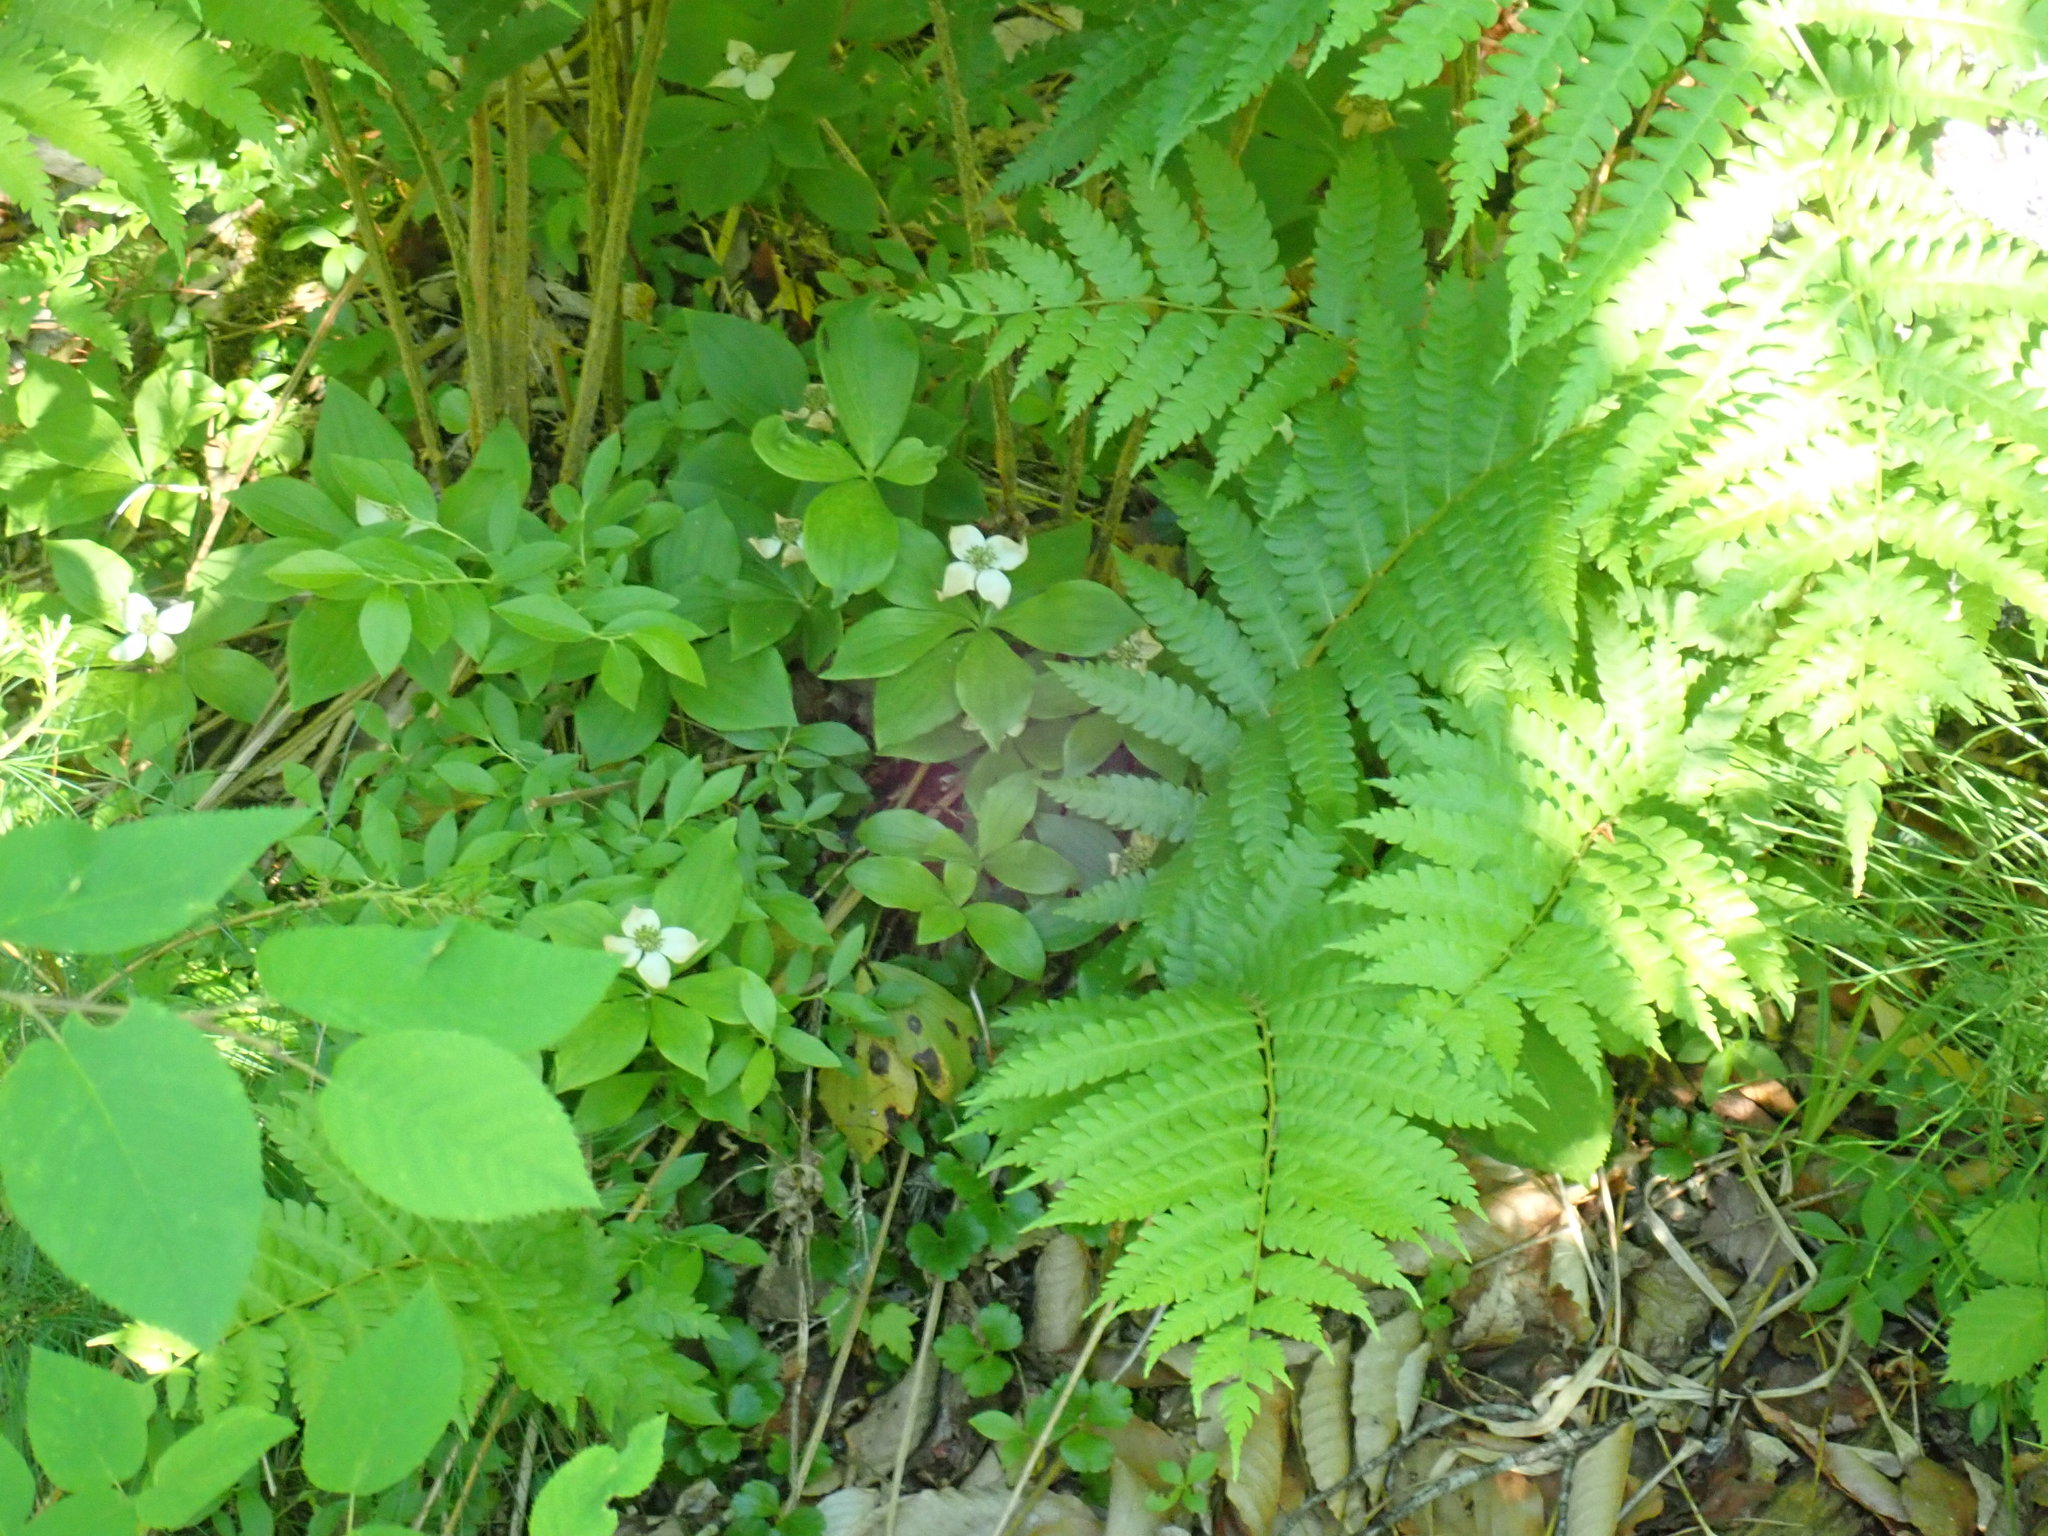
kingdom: Plantae
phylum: Tracheophyta
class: Magnoliopsida
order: Cornales
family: Cornaceae
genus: Cornus
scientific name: Cornus canadensis
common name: Creeping dogwood
